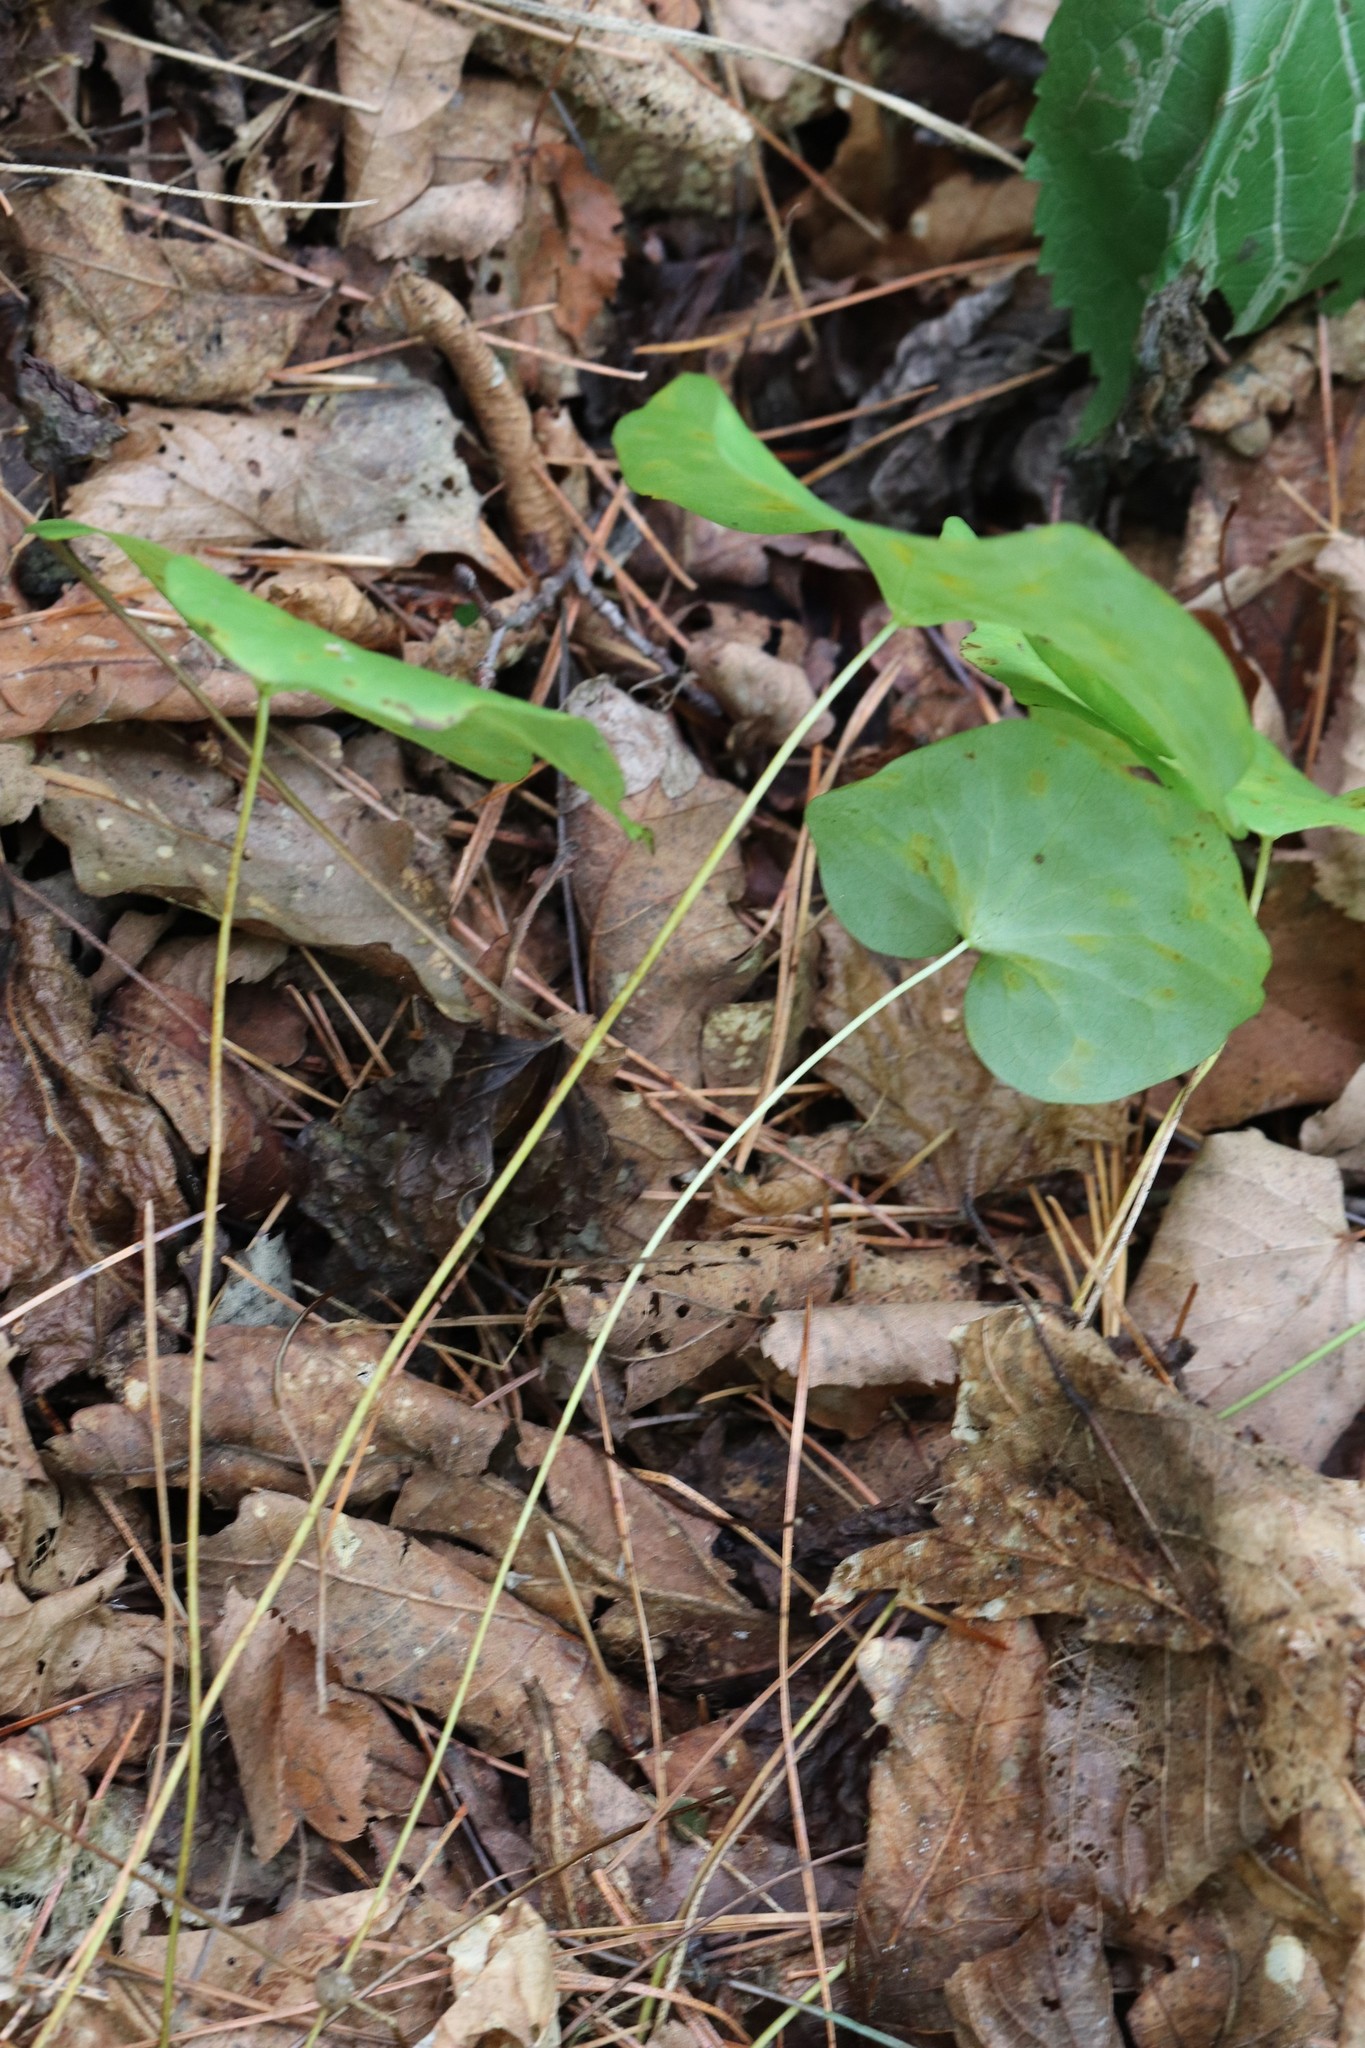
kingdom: Plantae
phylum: Tracheophyta
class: Magnoliopsida
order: Ranunculales
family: Berberidaceae
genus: Plagiorhegma
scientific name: Plagiorhegma dubium
